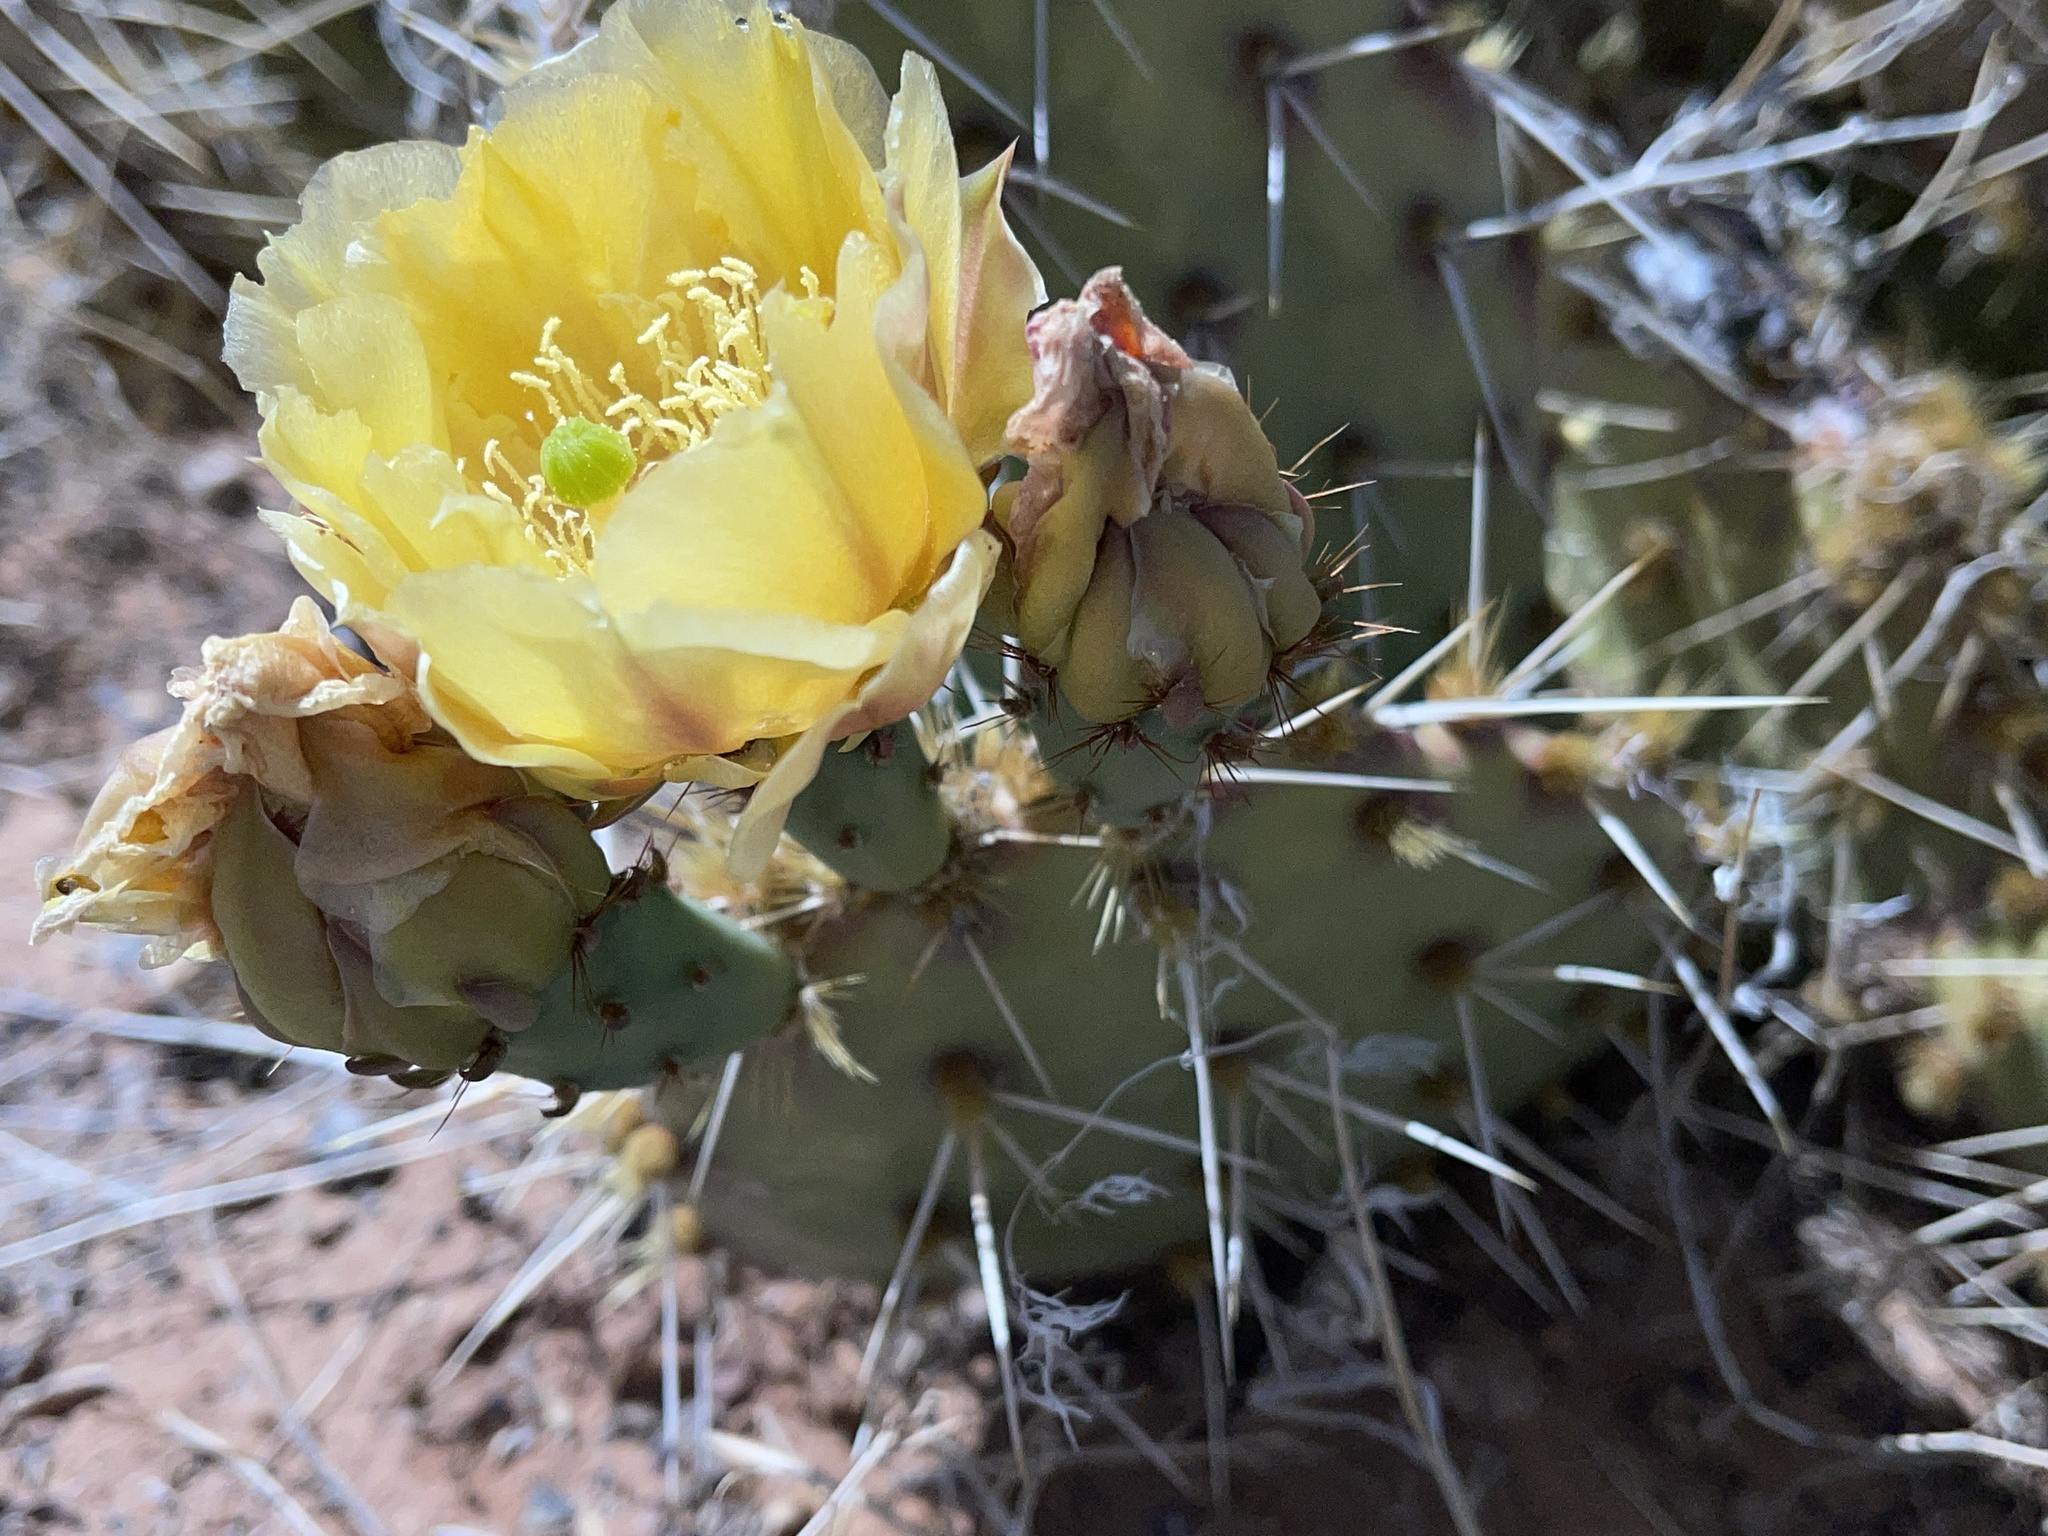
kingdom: Plantae
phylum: Tracheophyta
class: Magnoliopsida
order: Caryophyllales
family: Cactaceae
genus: Opuntia
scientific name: Opuntia phaeacantha
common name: New mexico prickly-pear
